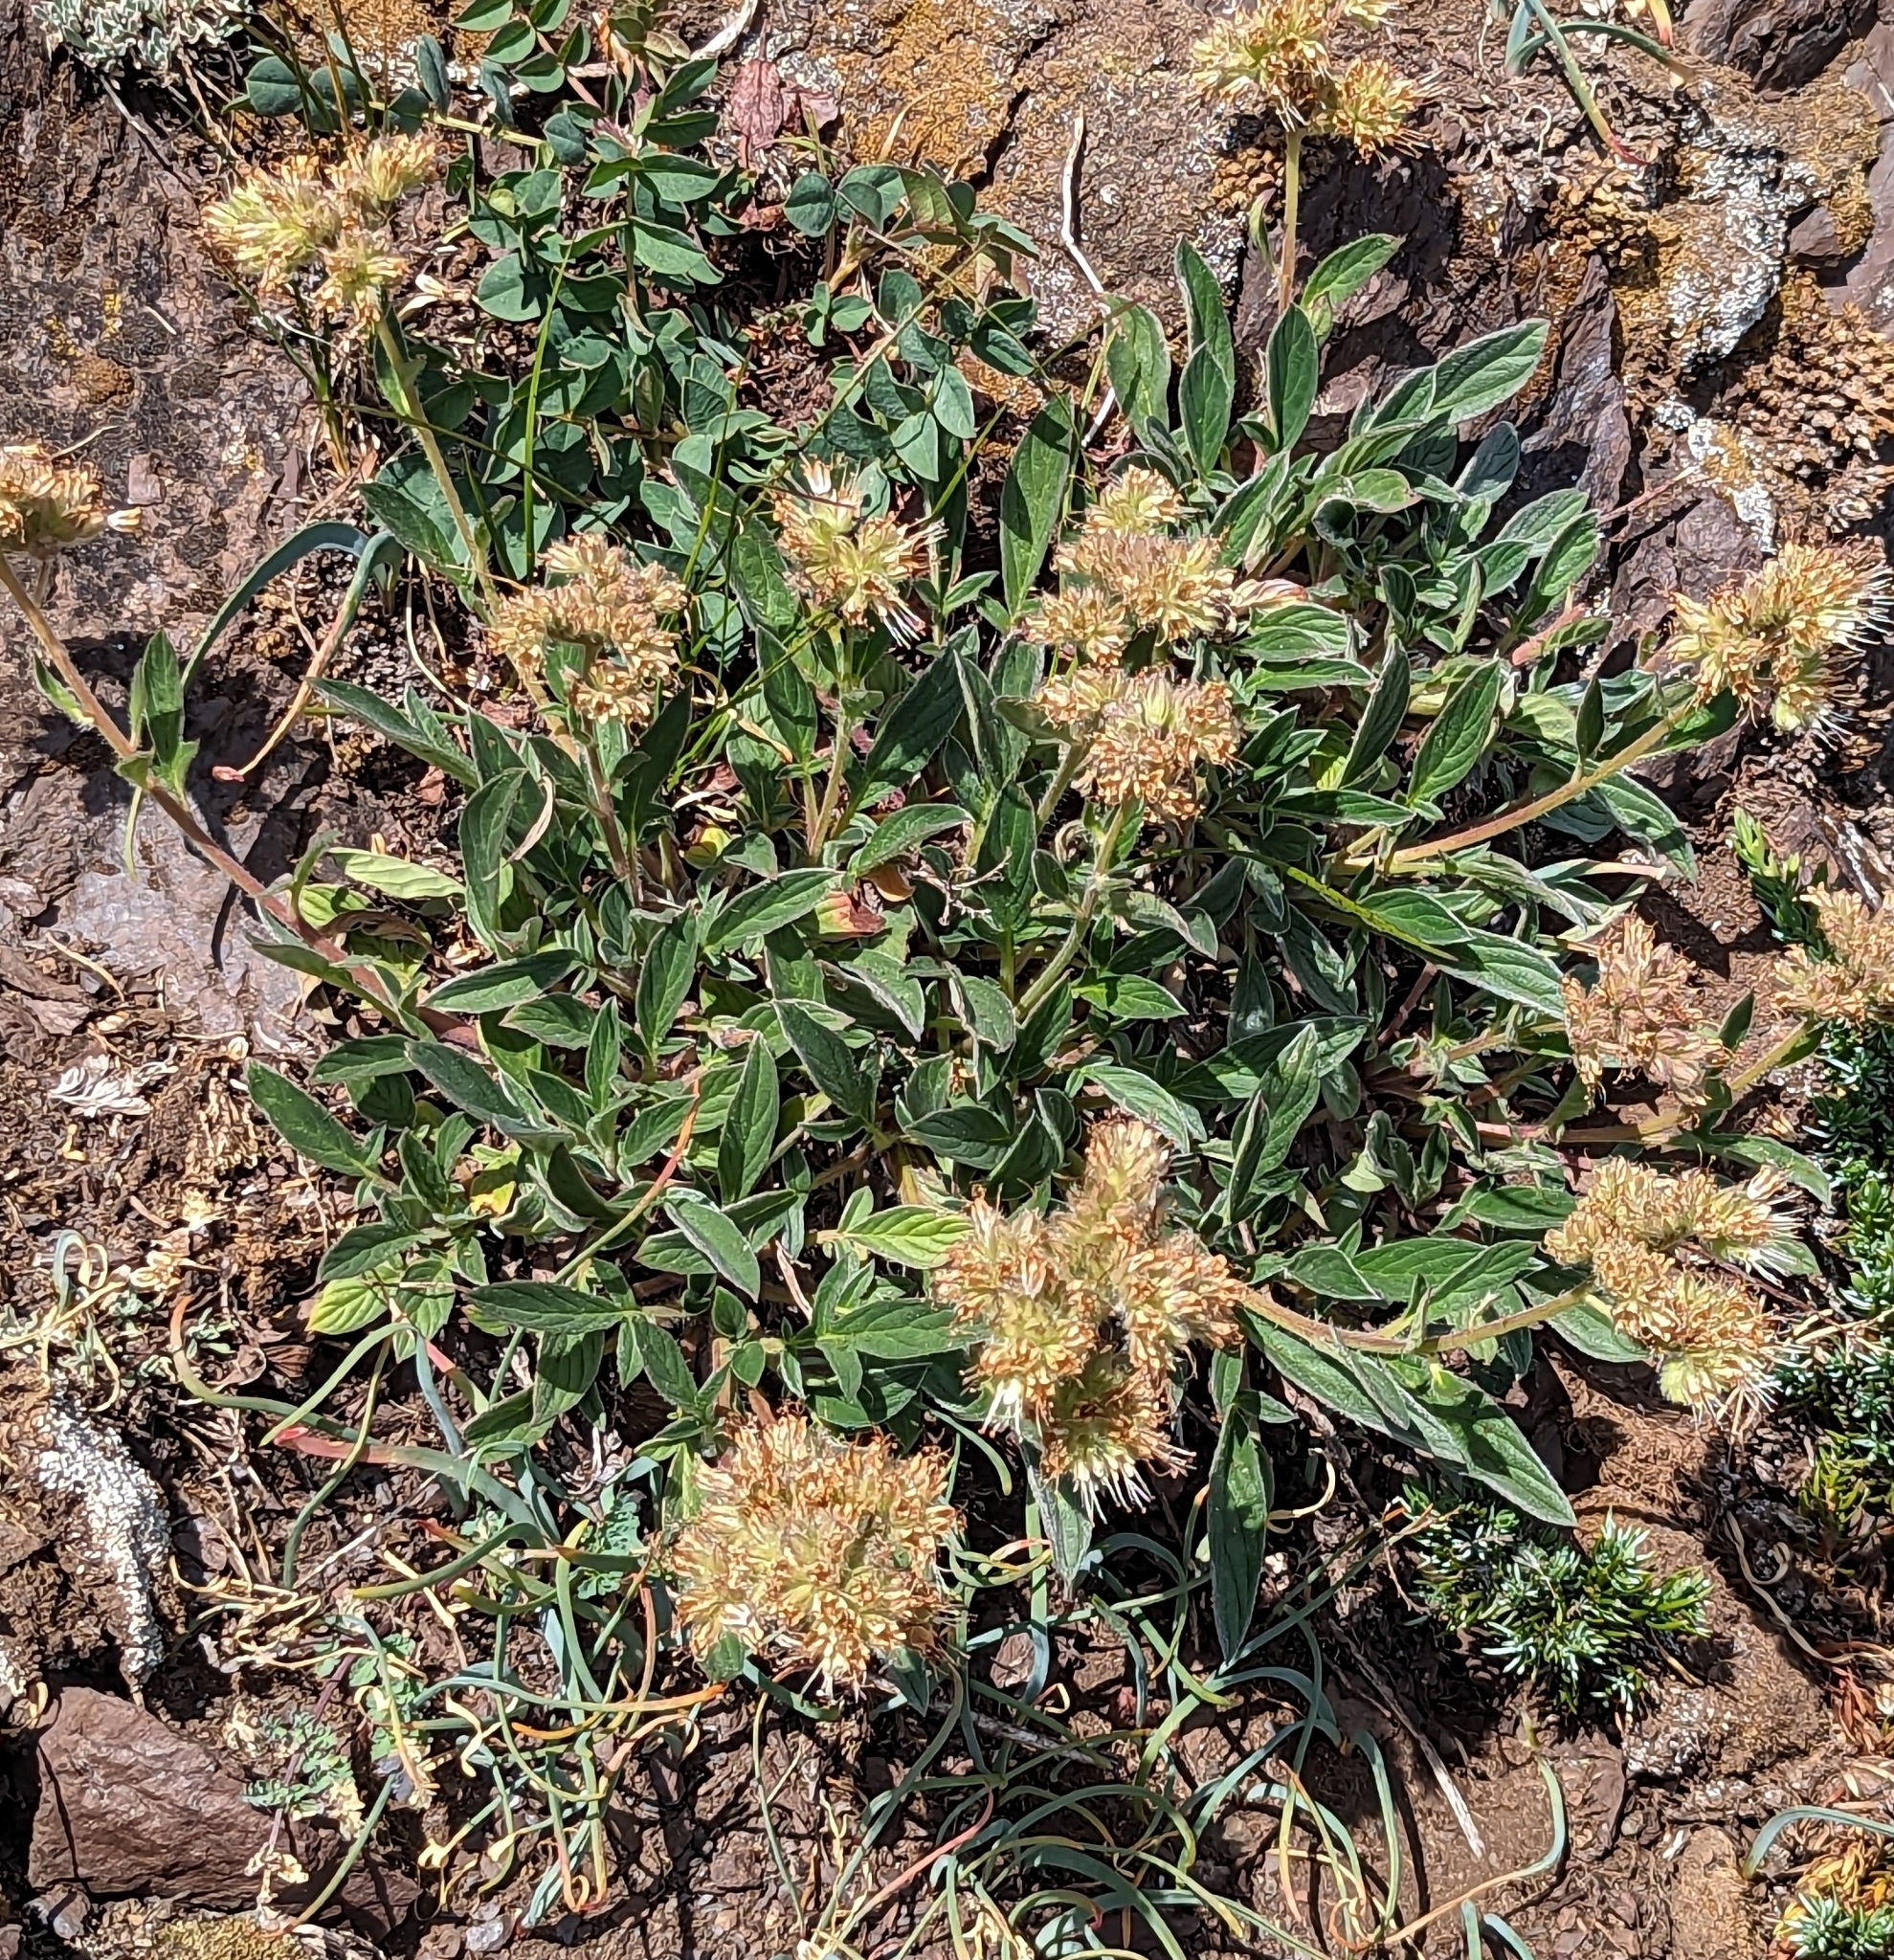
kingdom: Plantae
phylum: Tracheophyta
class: Magnoliopsida
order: Boraginales
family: Hydrophyllaceae
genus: Phacelia
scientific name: Phacelia hastata
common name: Silver-leaved phacelia
